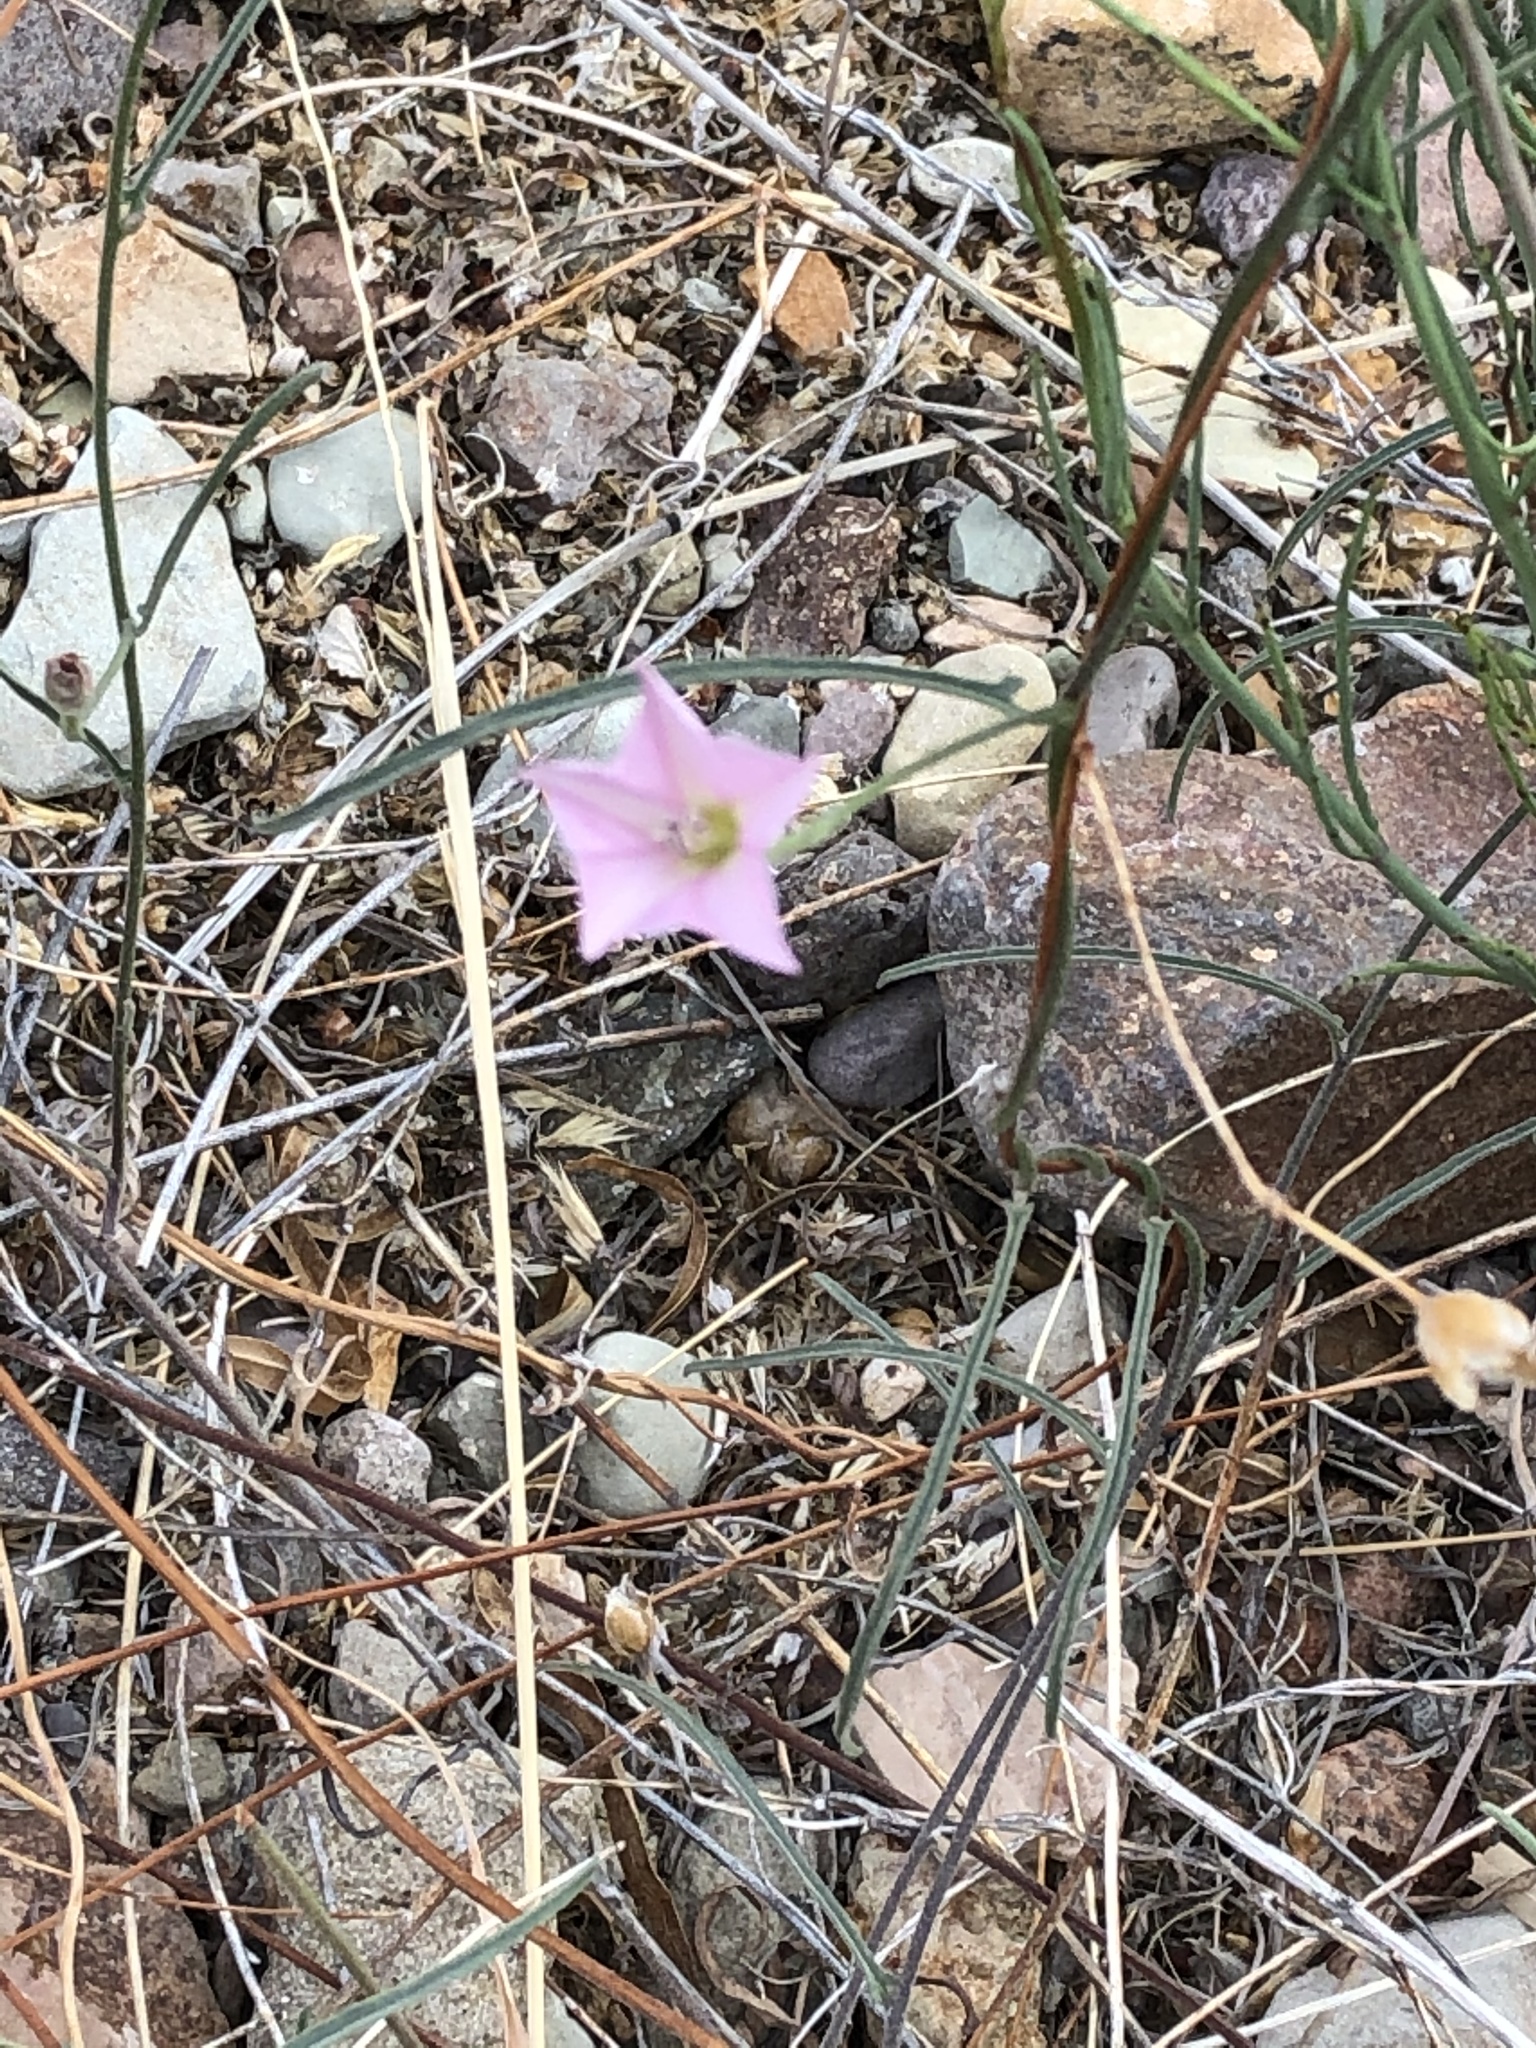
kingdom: Plantae
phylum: Tracheophyta
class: Magnoliopsida
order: Solanales
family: Convolvulaceae
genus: Convolvulus
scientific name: Convolvulus equitans
